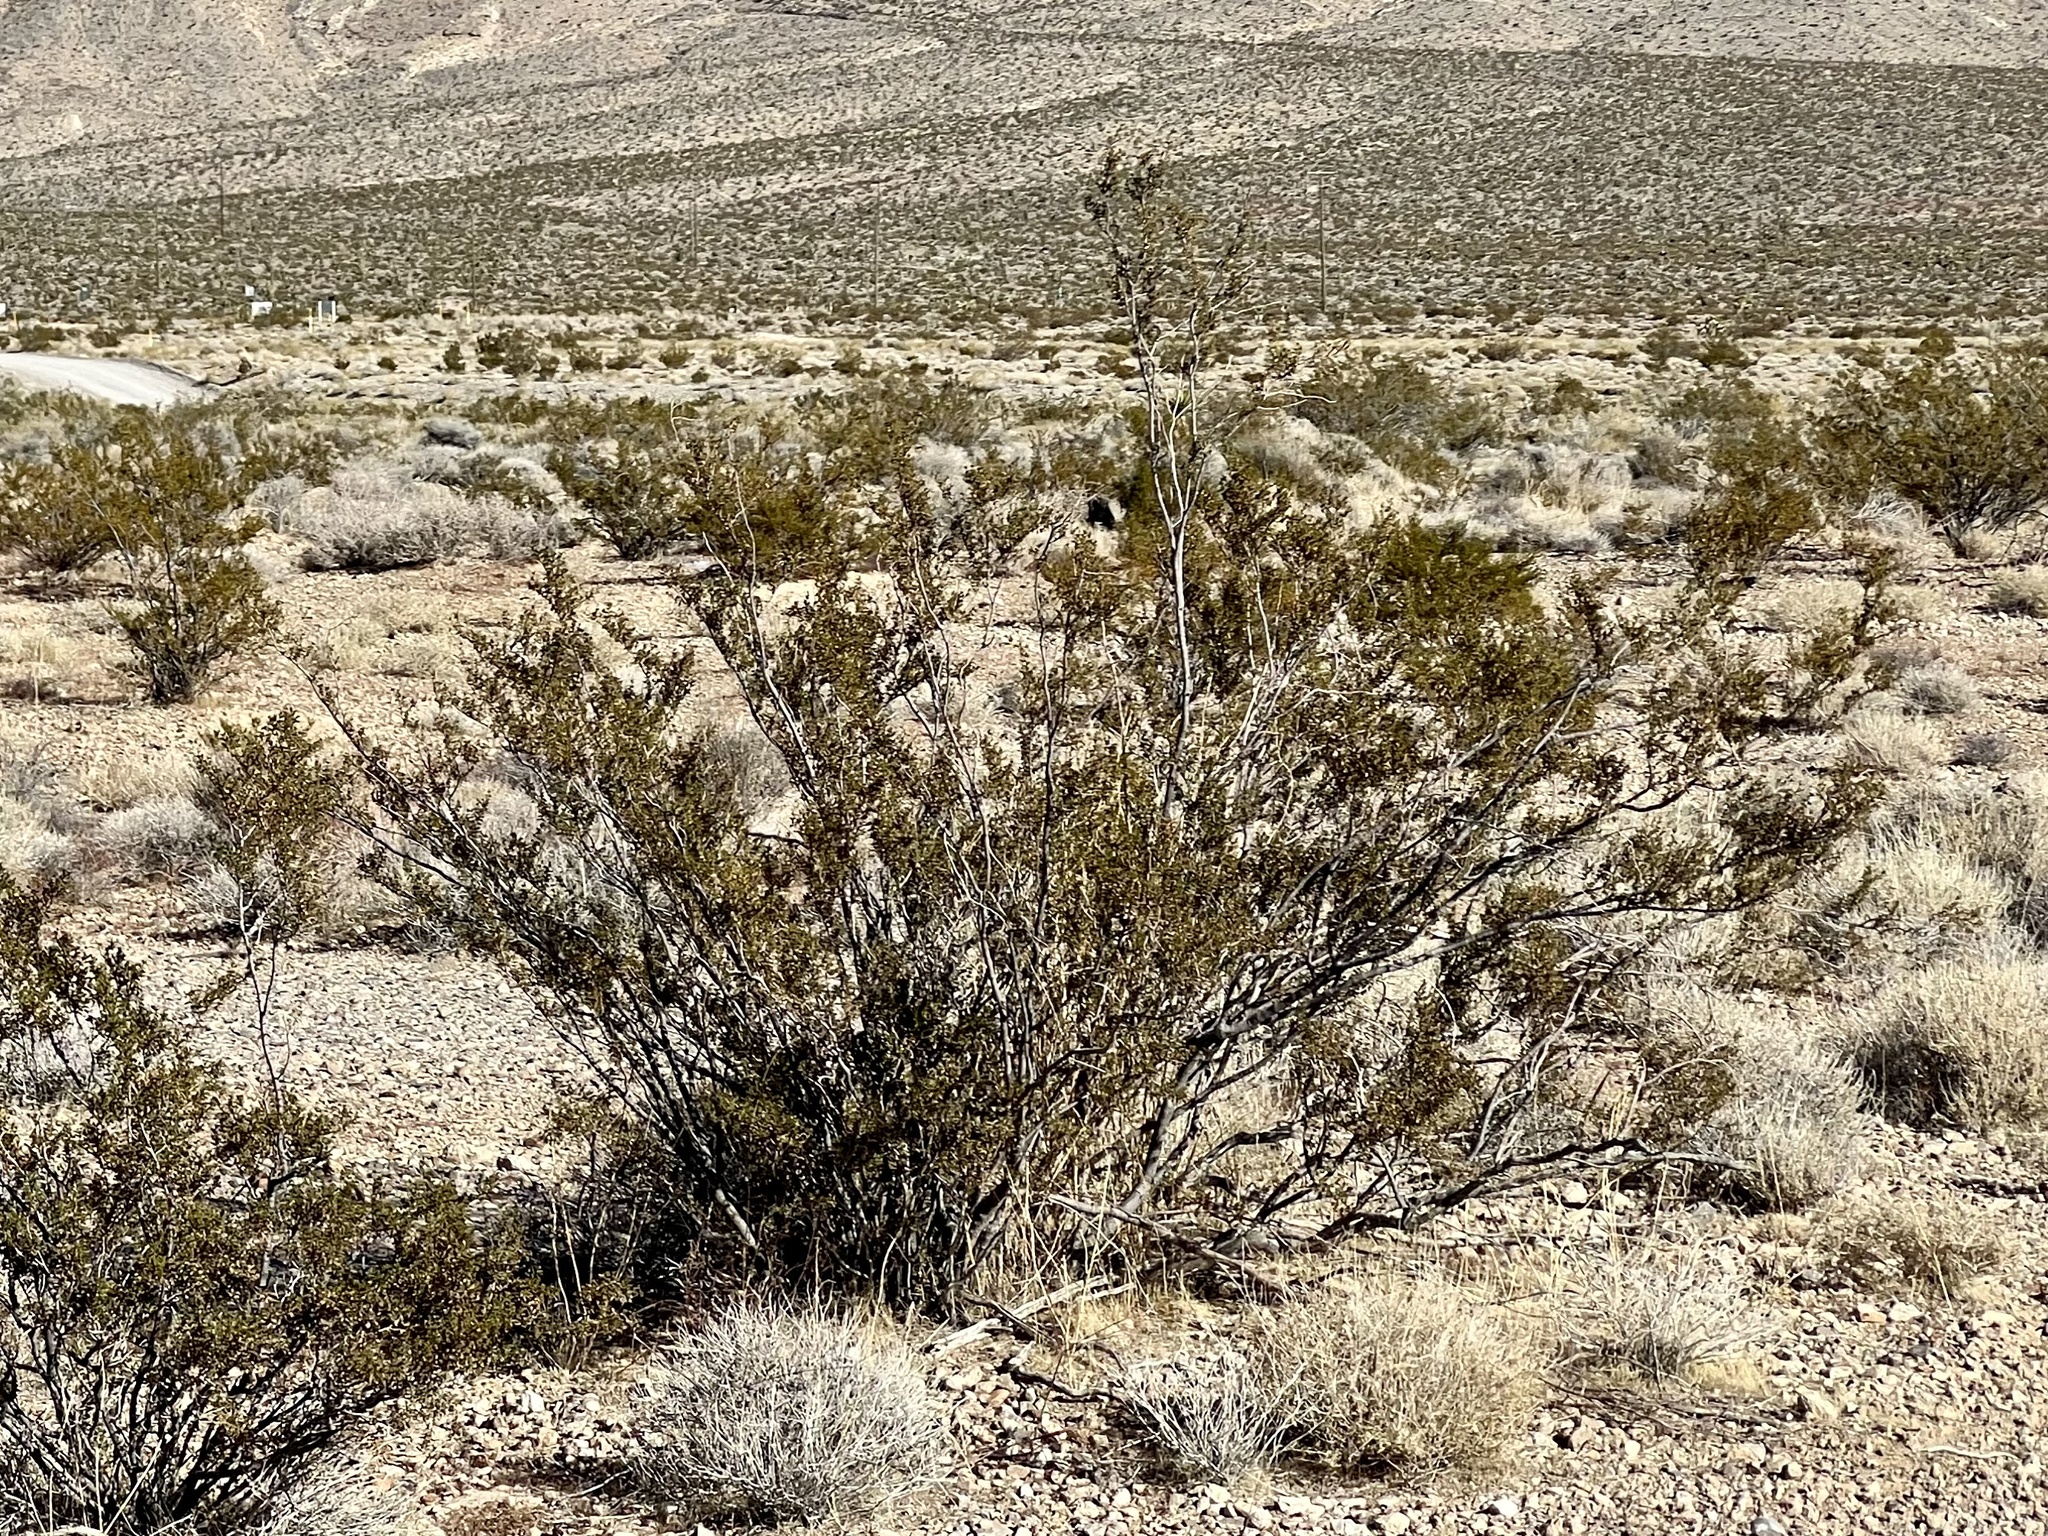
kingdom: Plantae
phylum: Tracheophyta
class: Magnoliopsida
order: Zygophyllales
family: Zygophyllaceae
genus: Larrea
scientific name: Larrea tridentata
